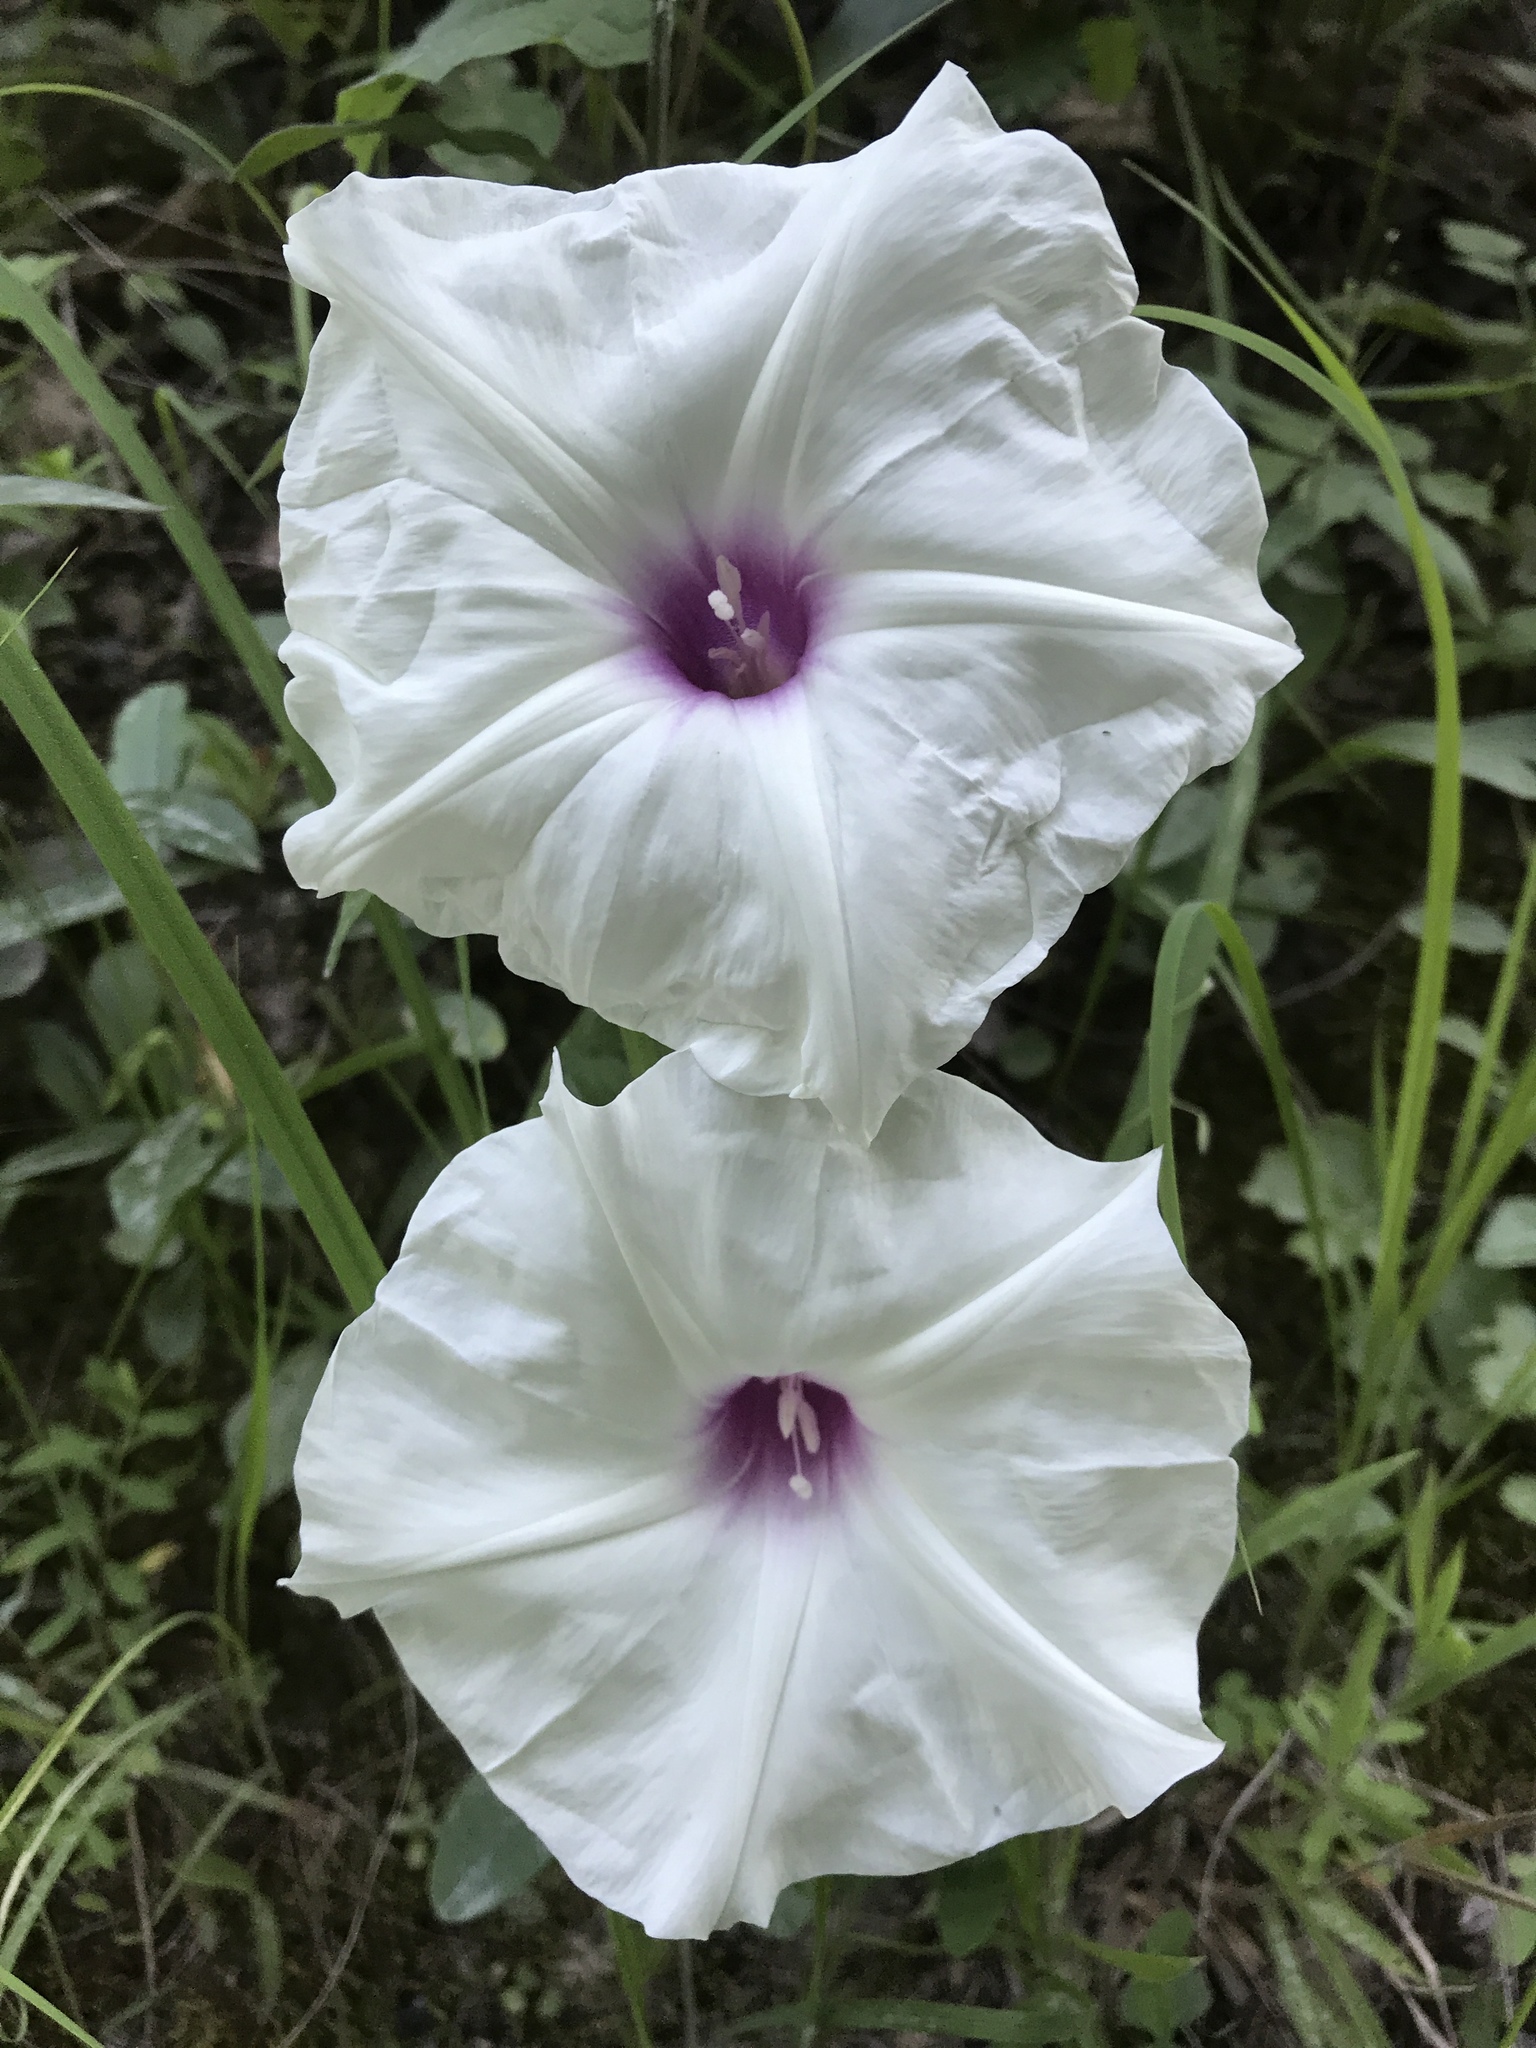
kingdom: Plantae
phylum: Tracheophyta
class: Magnoliopsida
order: Solanales
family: Convolvulaceae
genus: Ipomoea
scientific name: Ipomoea pandurata
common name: Man-of-the-earth
